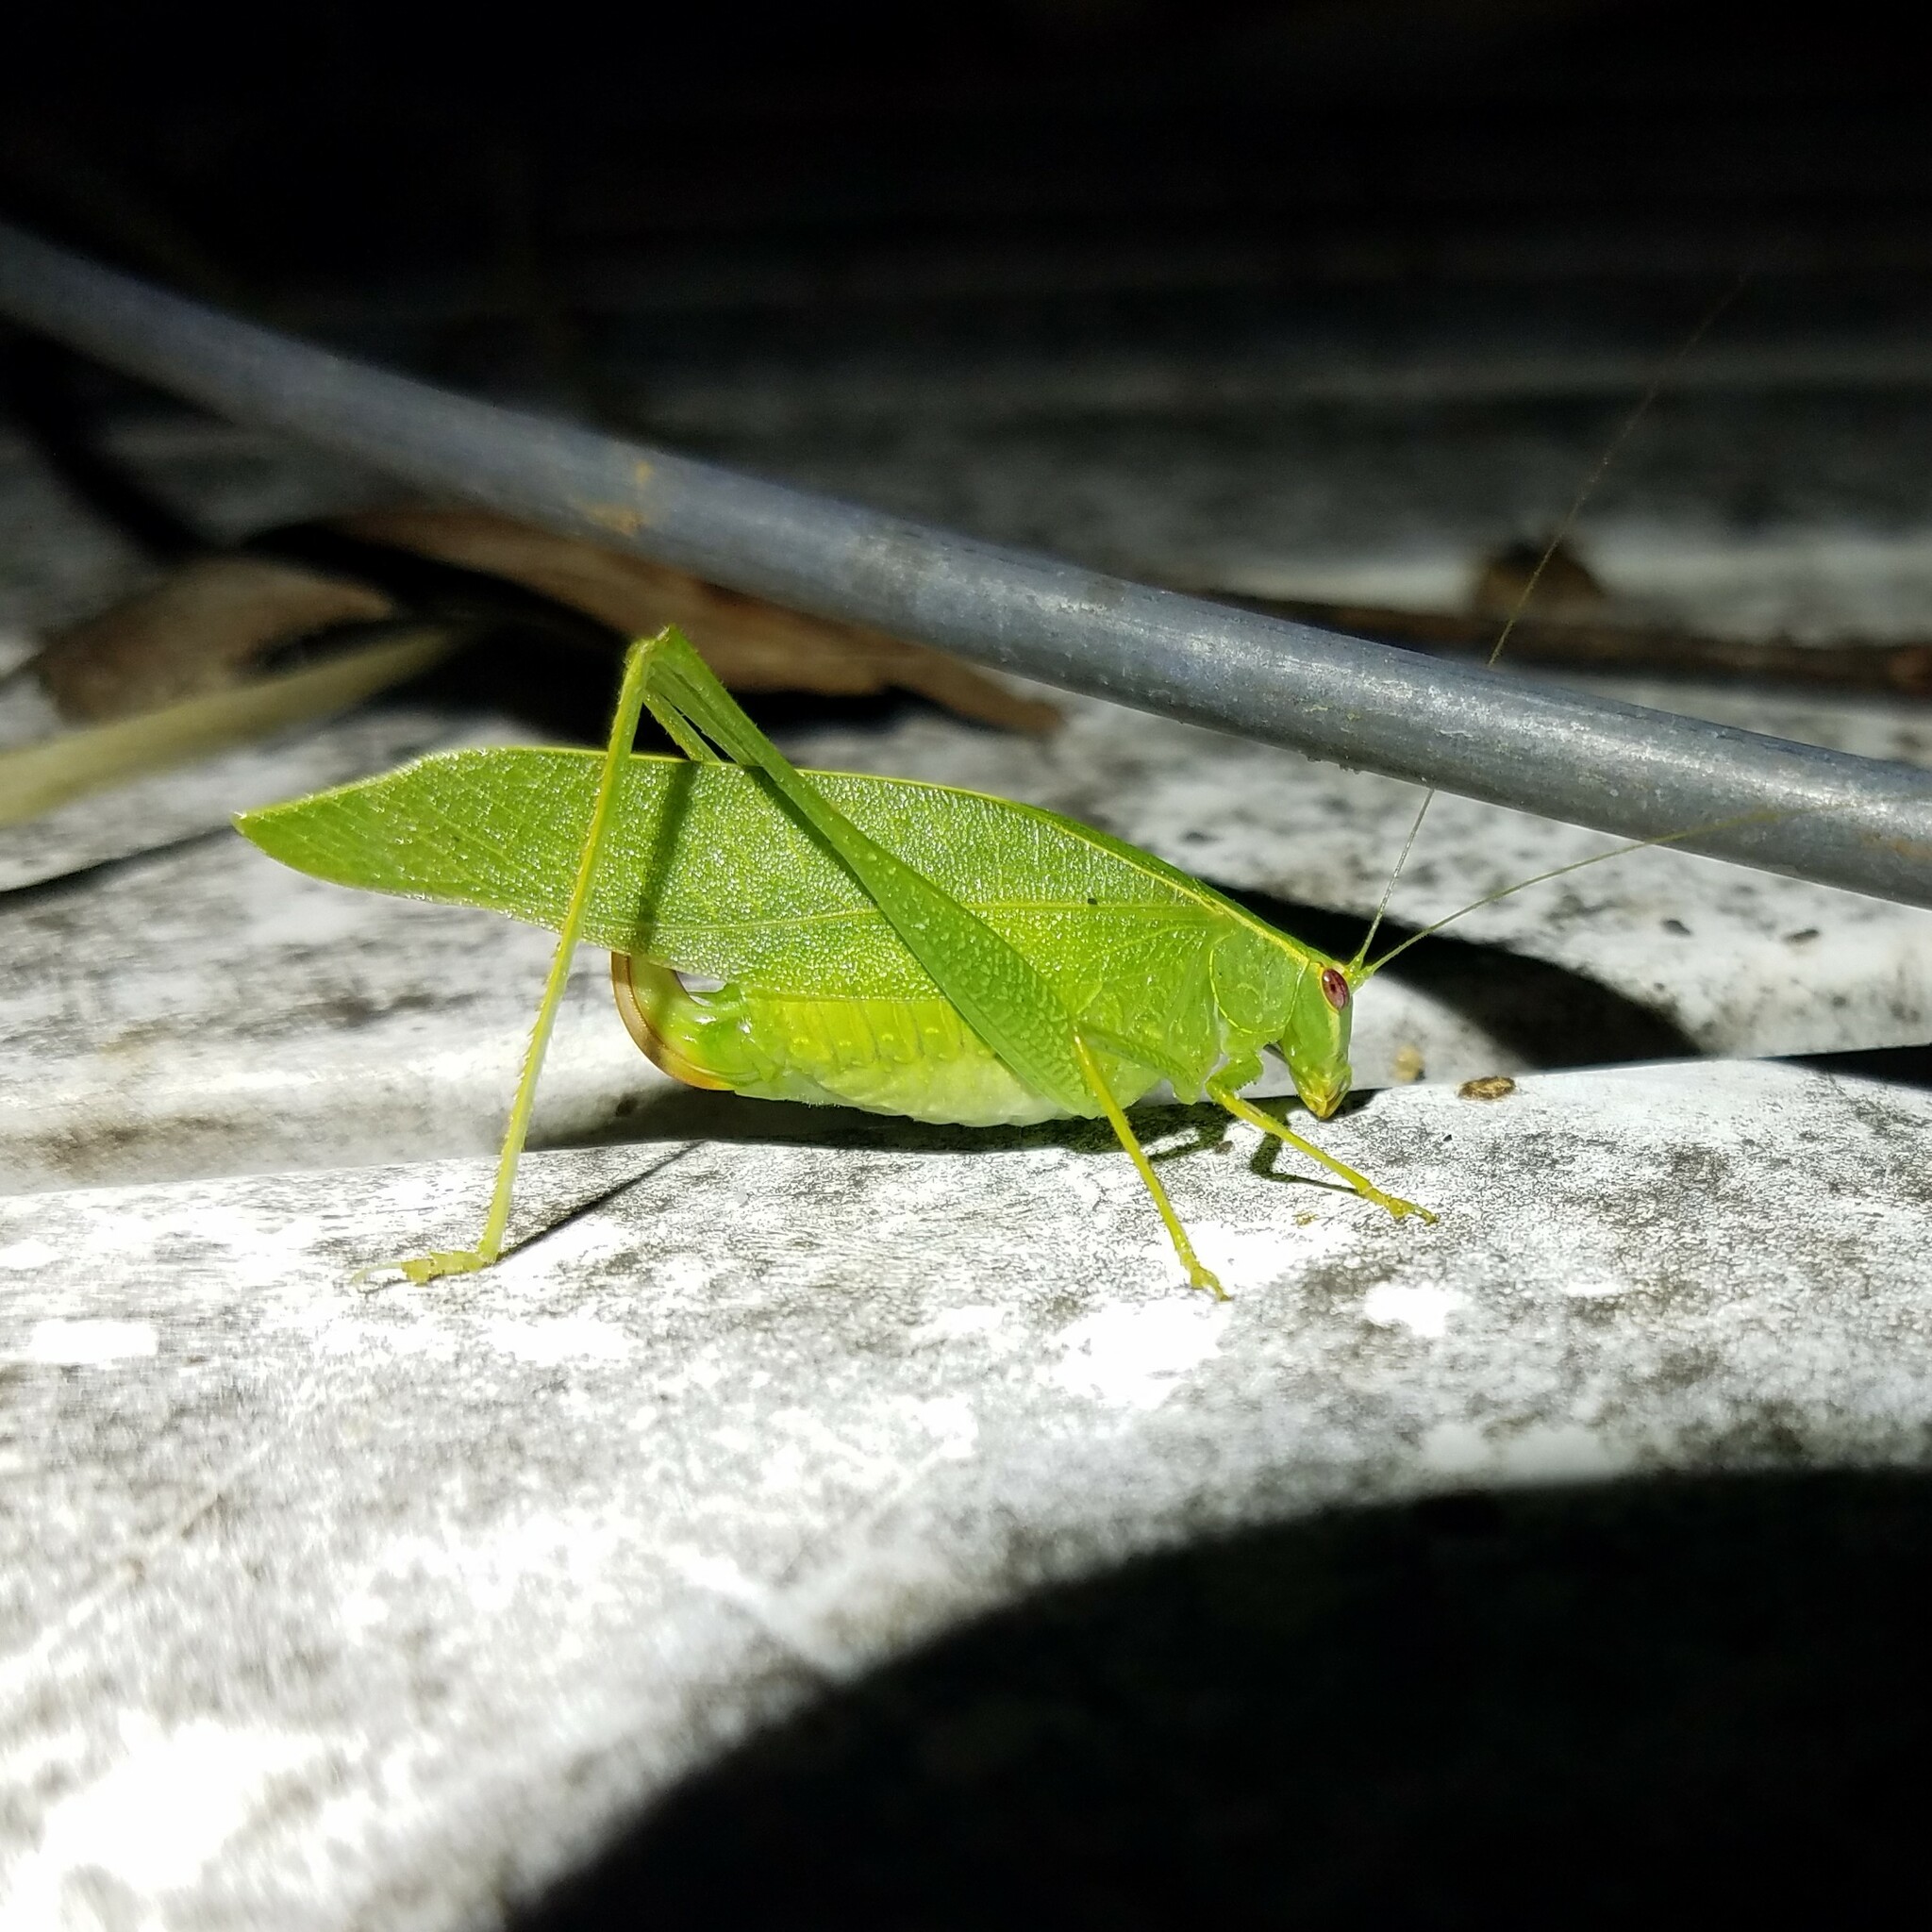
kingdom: Animalia
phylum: Arthropoda
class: Insecta
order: Orthoptera
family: Tettigoniidae
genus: Montezumina
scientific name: Montezumina modesta
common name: Modest katydid
